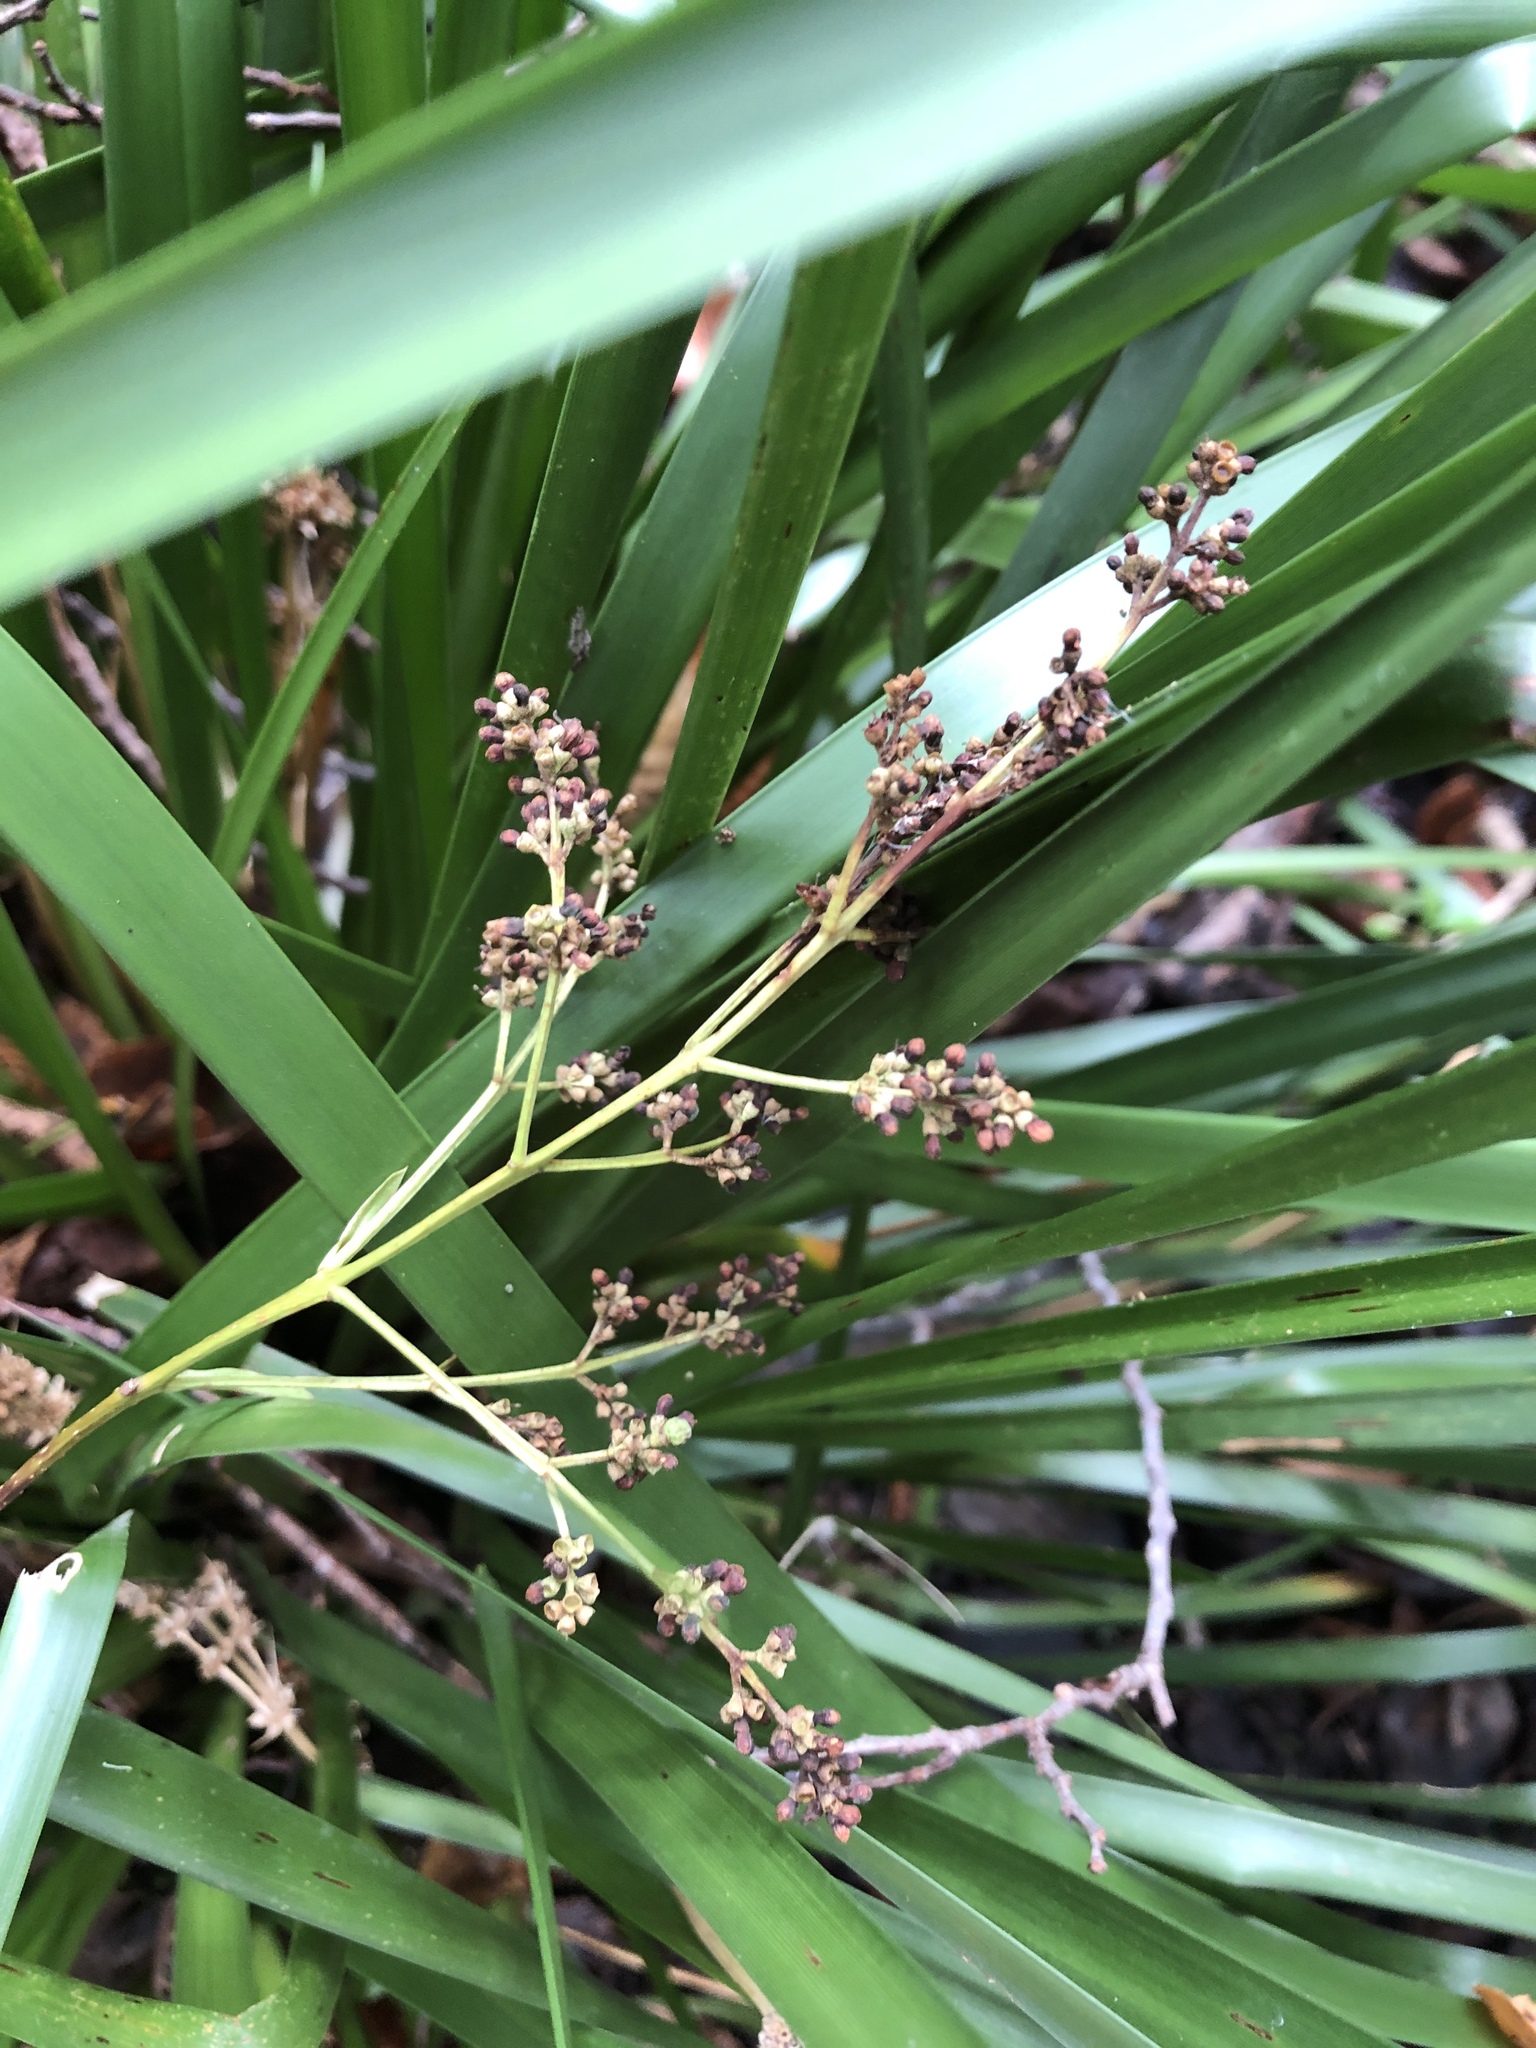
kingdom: Plantae
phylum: Tracheophyta
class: Liliopsida
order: Asparagales
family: Asparagaceae
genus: Lomandra
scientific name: Lomandra longifolia
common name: Longleaf mat-rush
